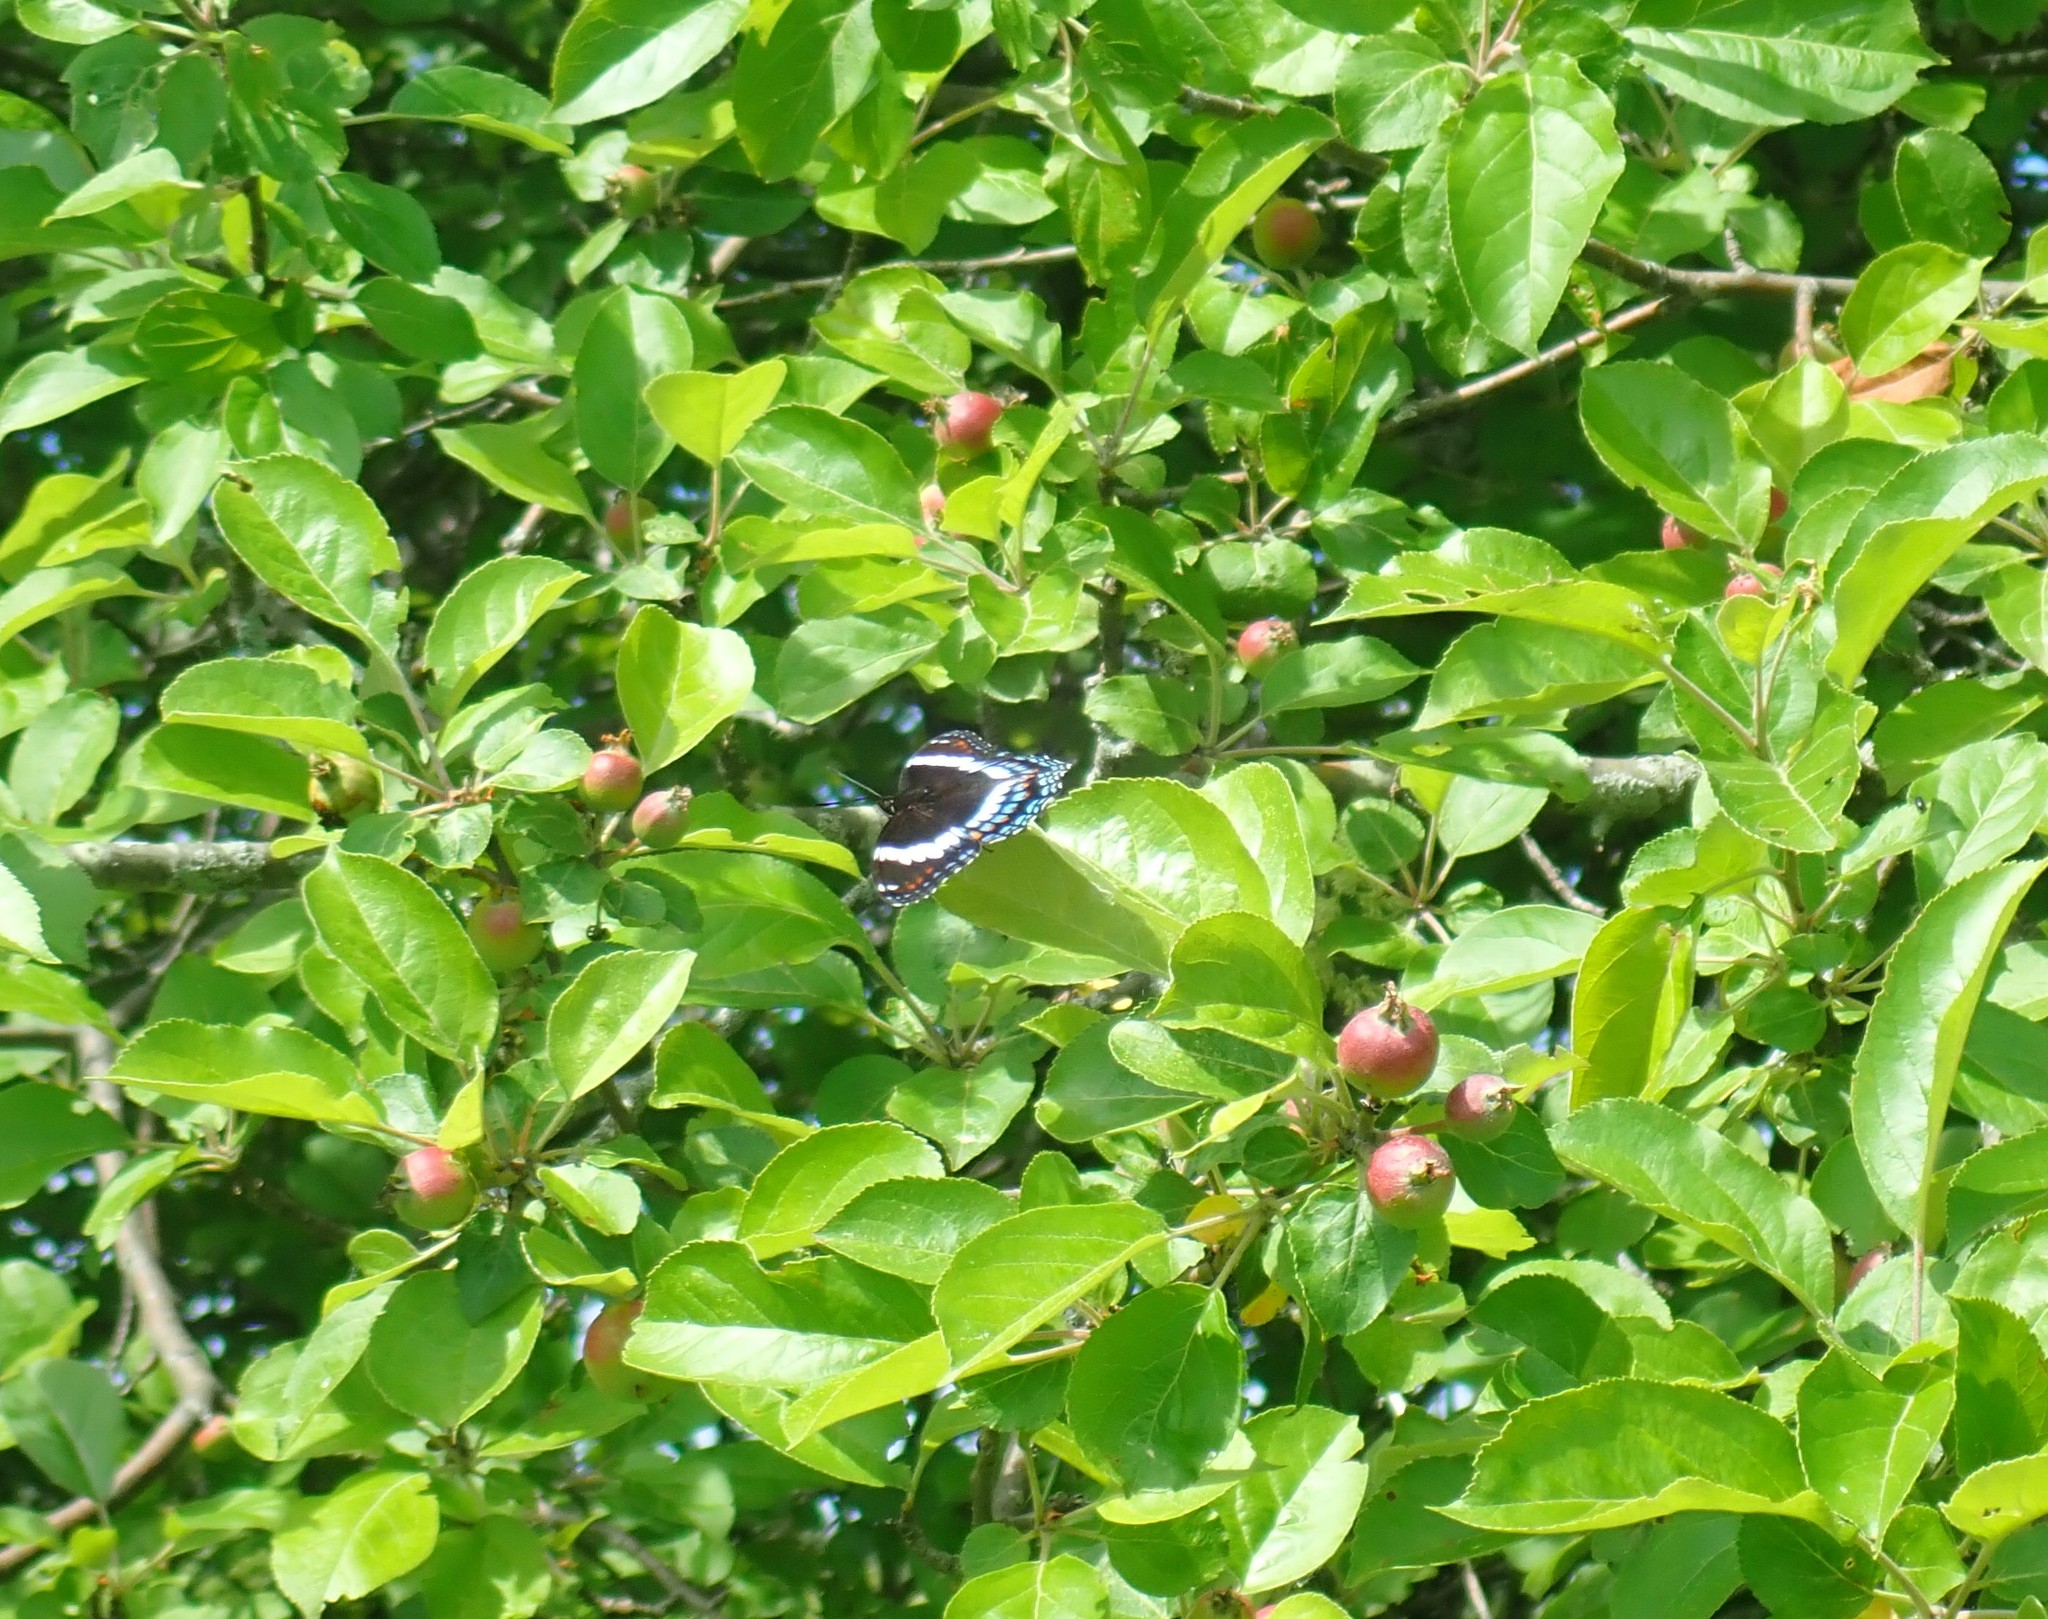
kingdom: Animalia
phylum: Arthropoda
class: Insecta
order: Lepidoptera
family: Nymphalidae
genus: Limenitis
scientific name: Limenitis arthemis
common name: Red-spotted admiral
